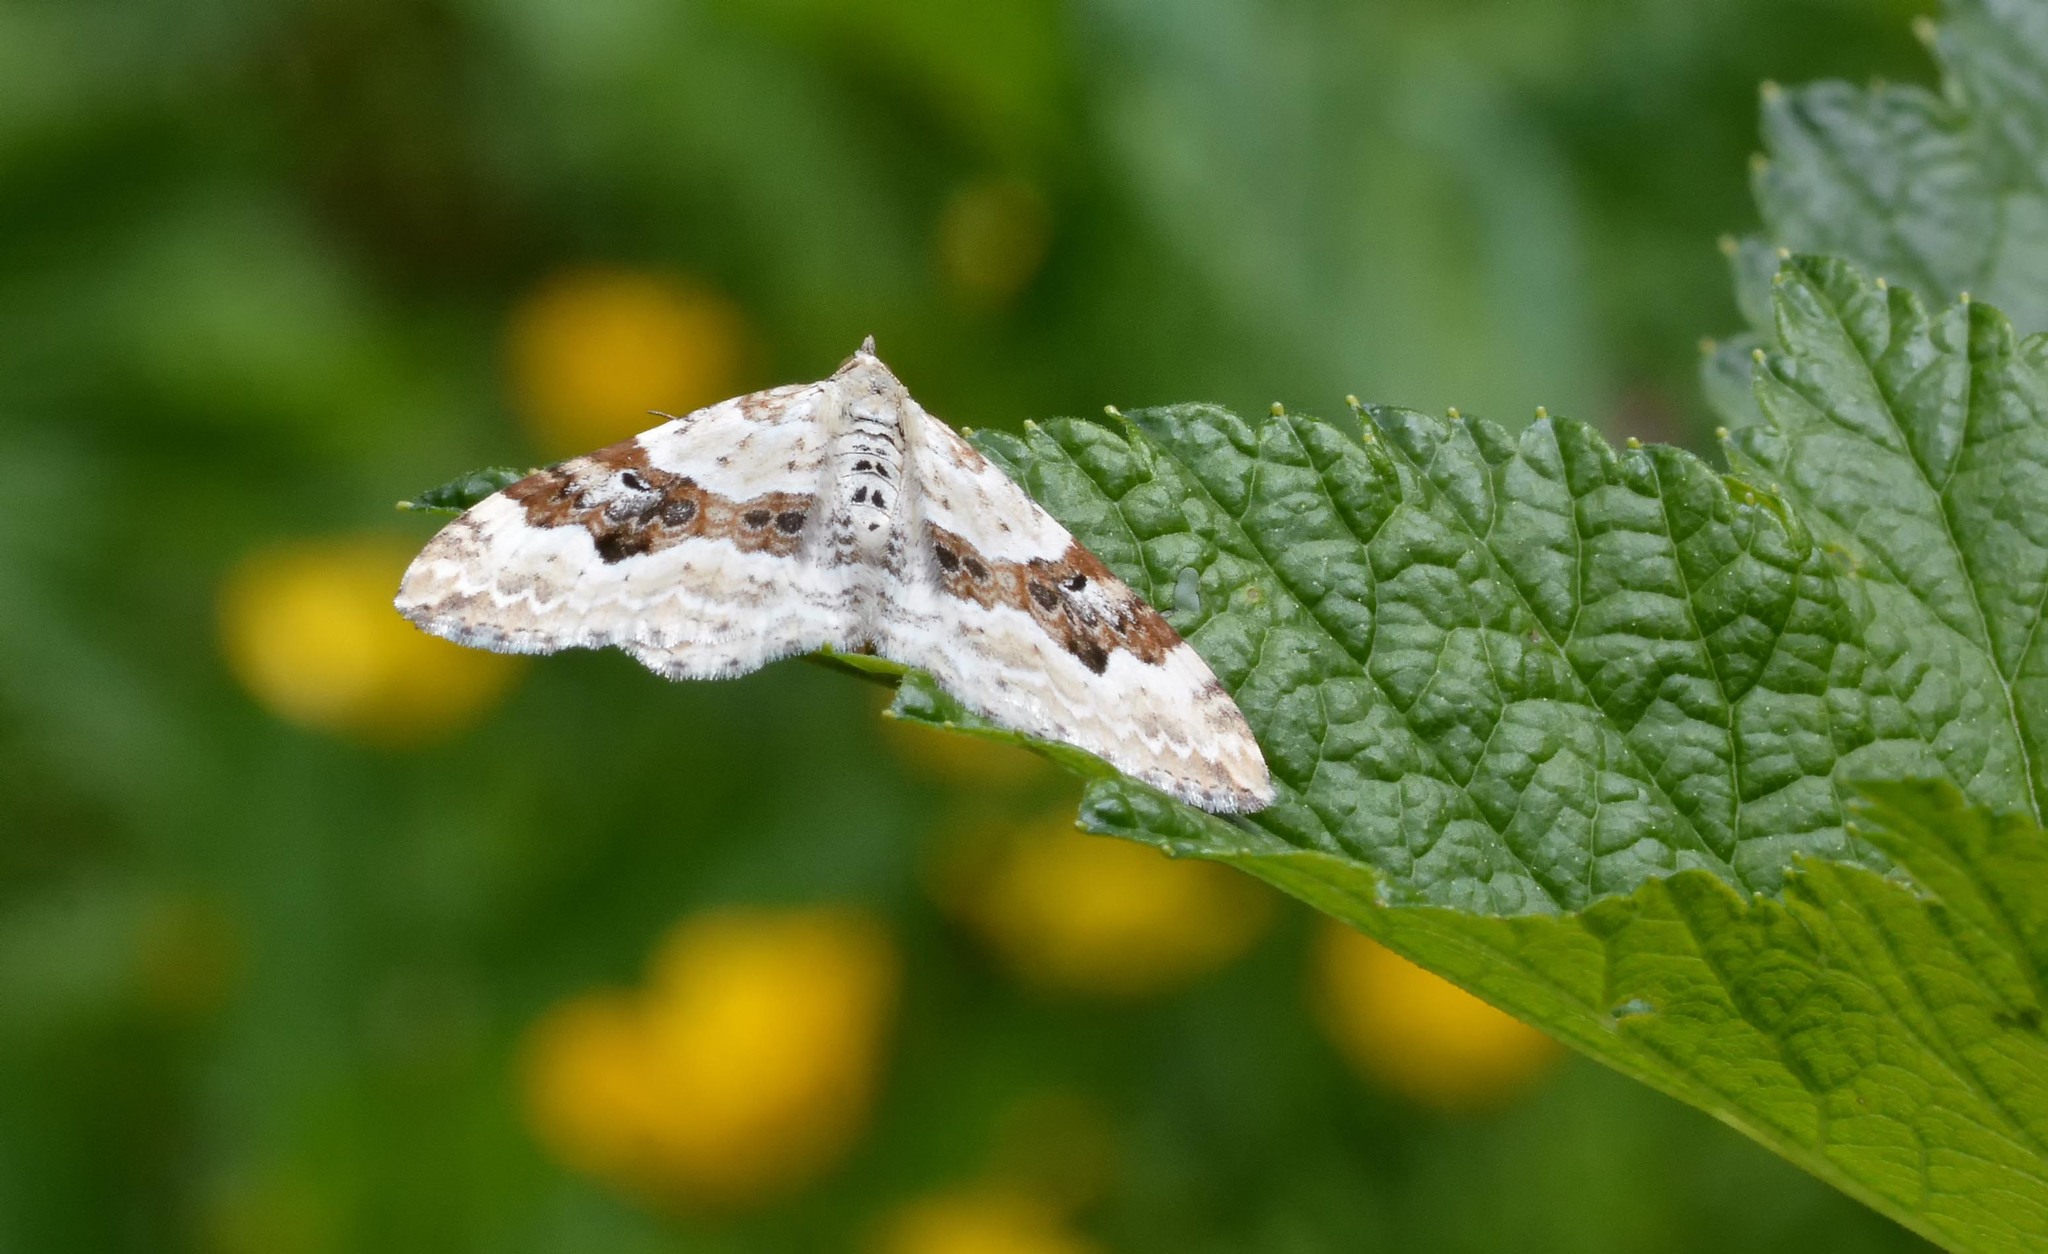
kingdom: Animalia
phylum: Arthropoda
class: Insecta
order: Lepidoptera
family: Geometridae
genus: Xanthorhoe
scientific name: Xanthorhoe montanata
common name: Silver-ground carpet
